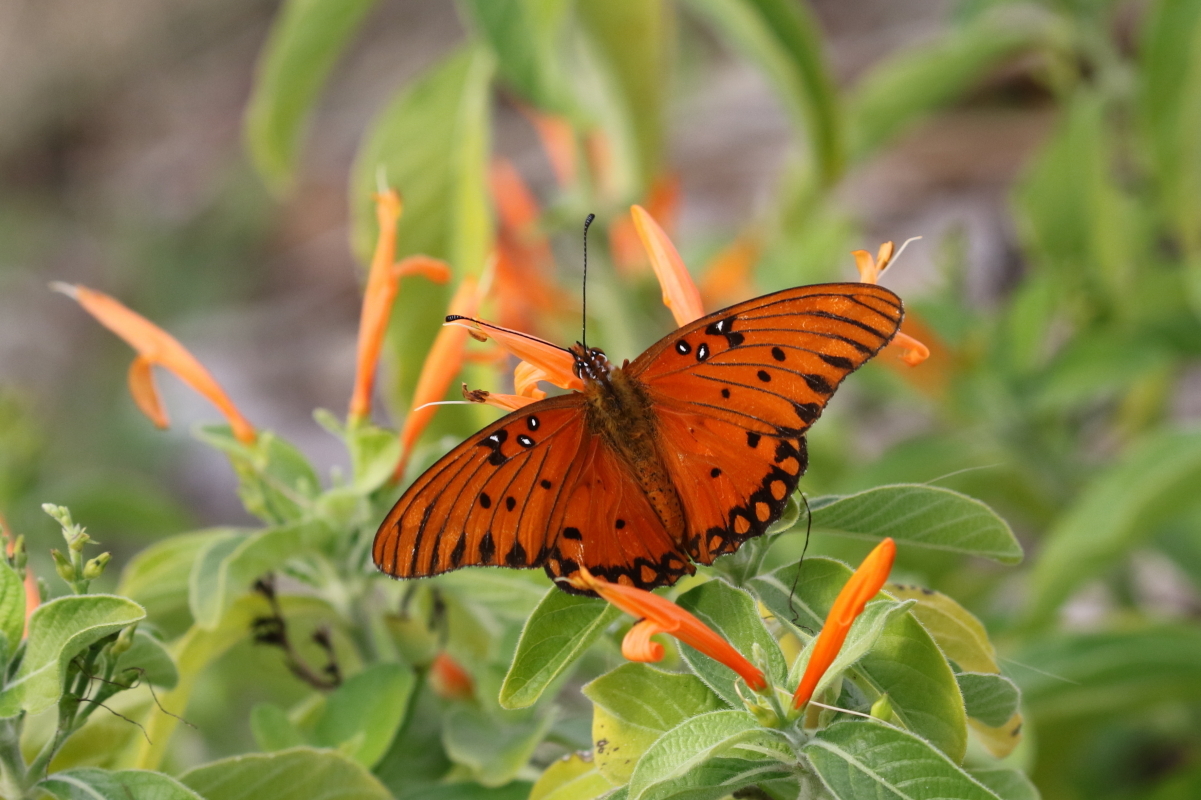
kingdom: Animalia
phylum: Arthropoda
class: Insecta
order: Lepidoptera
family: Nymphalidae
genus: Dione
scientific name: Dione vanillae
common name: Gulf fritillary
